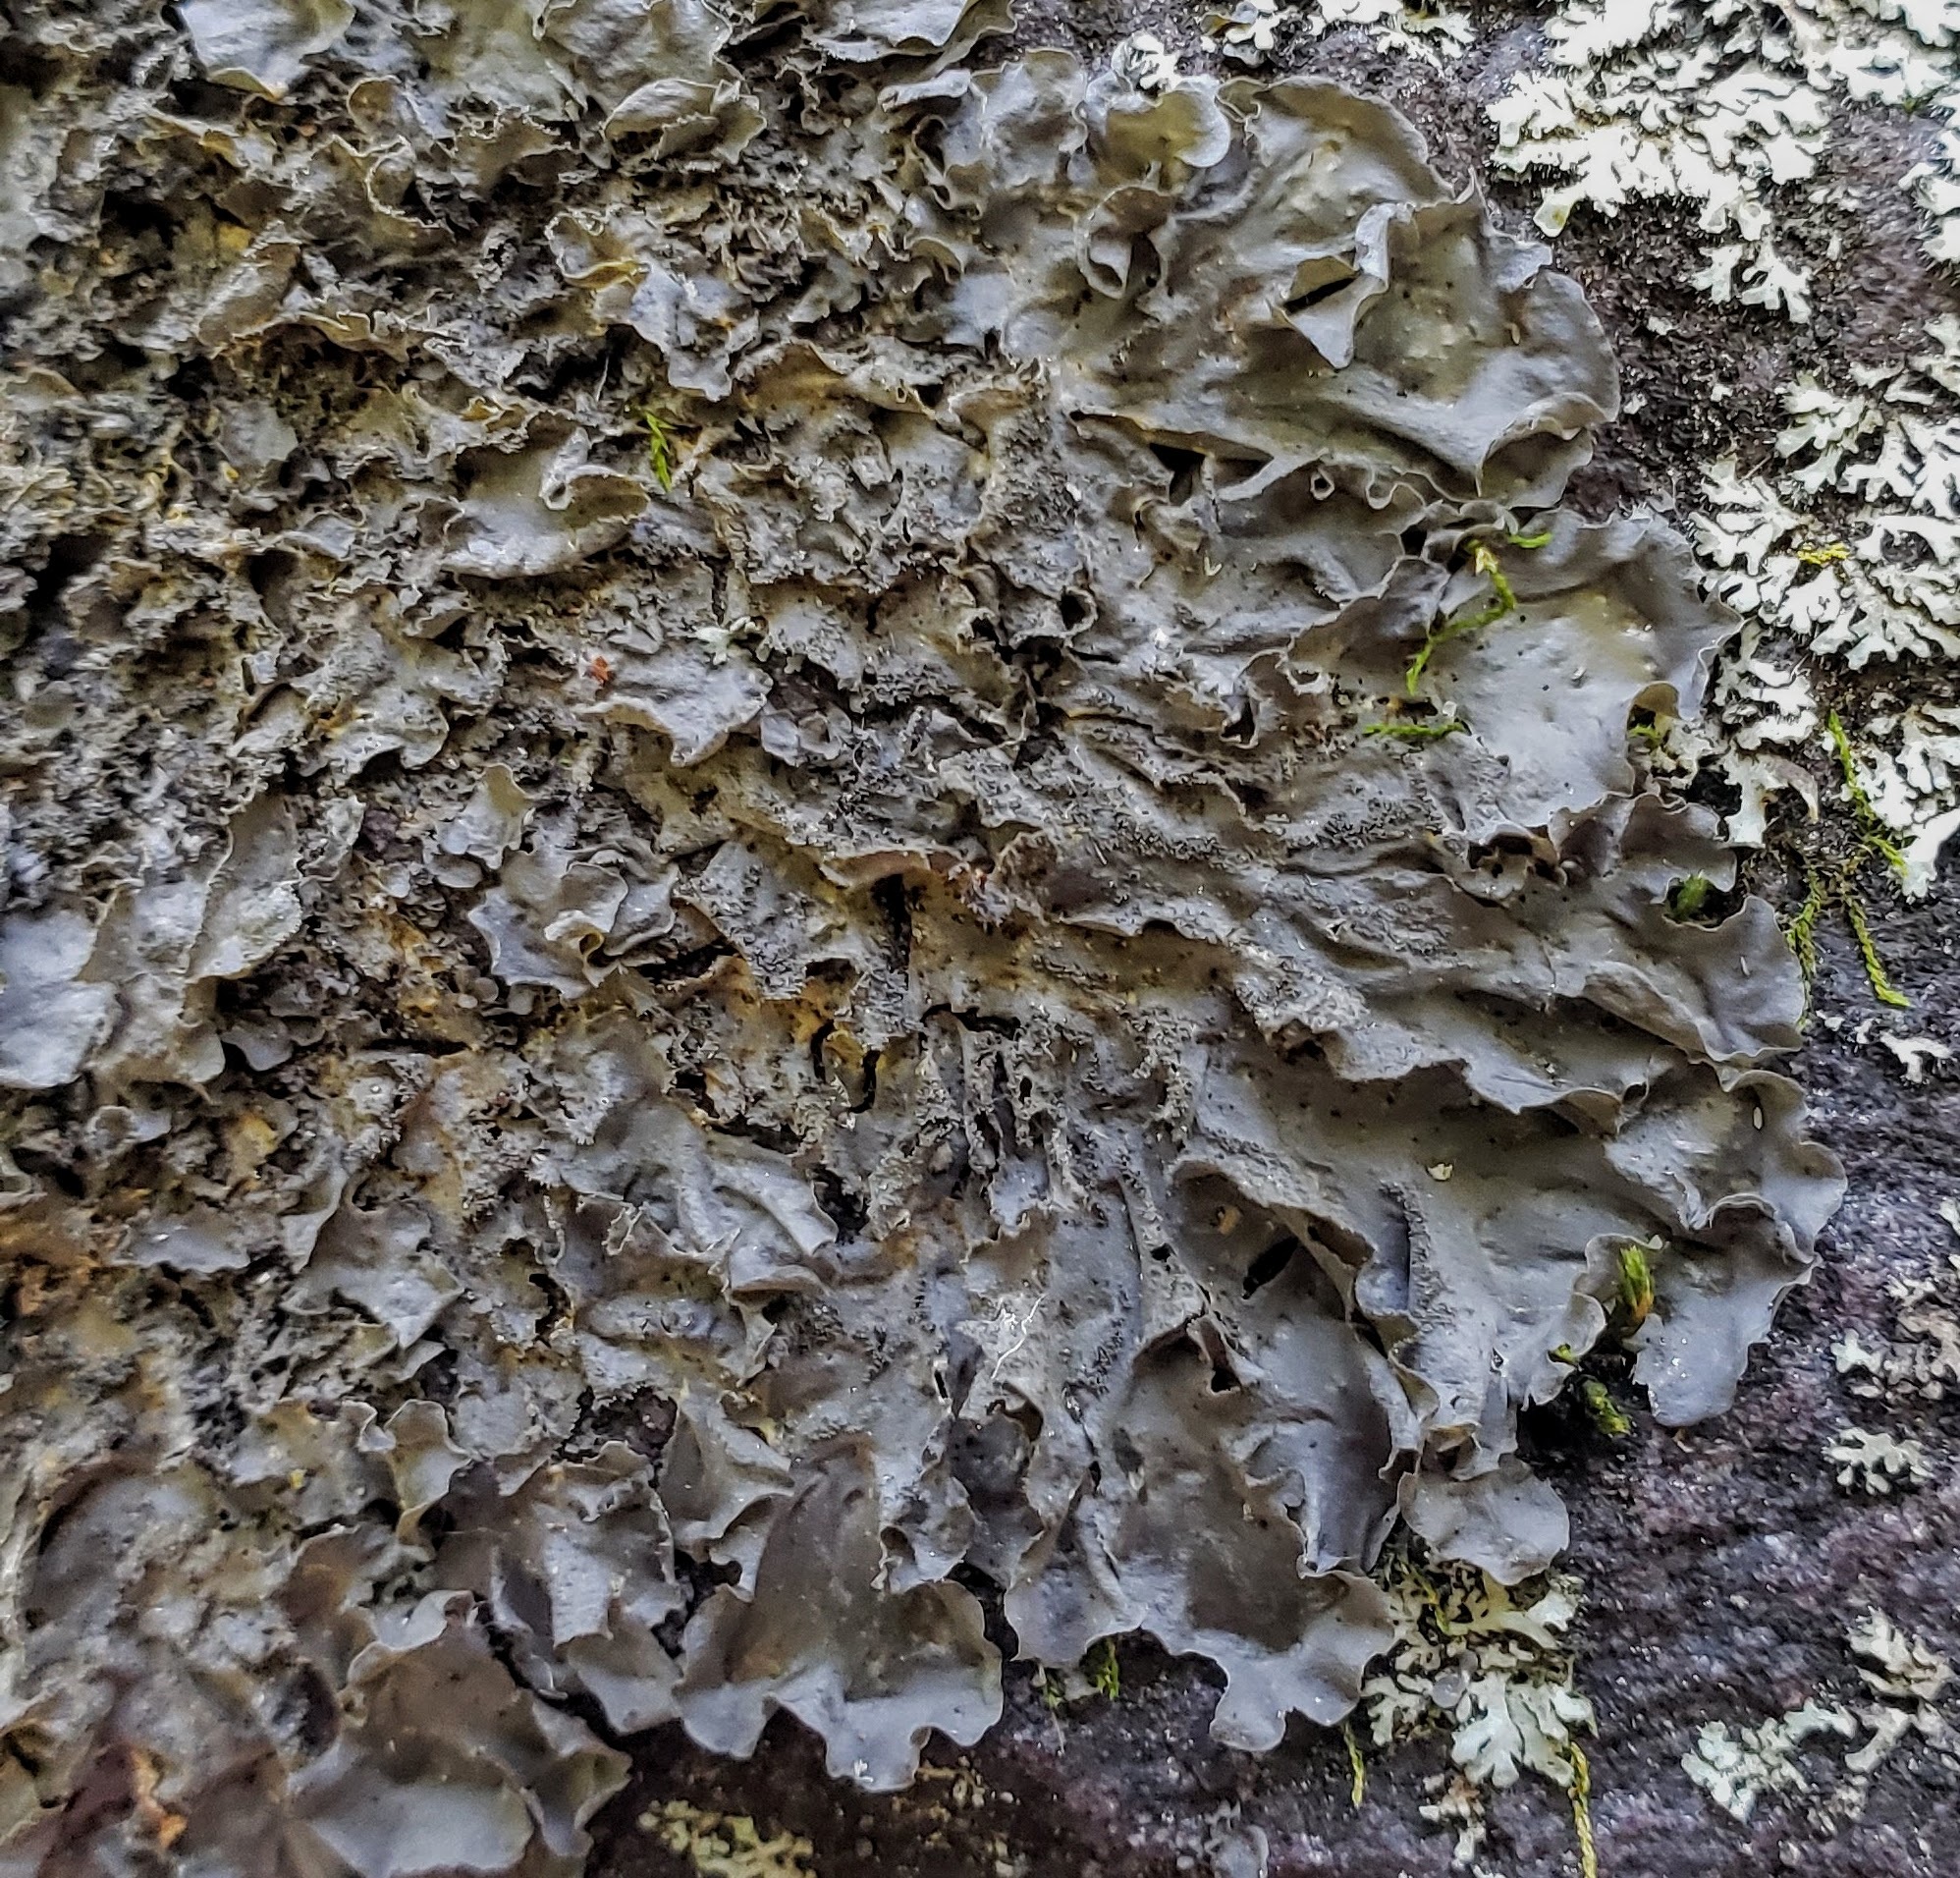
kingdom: Fungi
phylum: Ascomycota
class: Lecanoromycetes
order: Peltigerales
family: Collemataceae
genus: Leptogium
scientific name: Leptogium cyanescens
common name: Blue jellyskin
